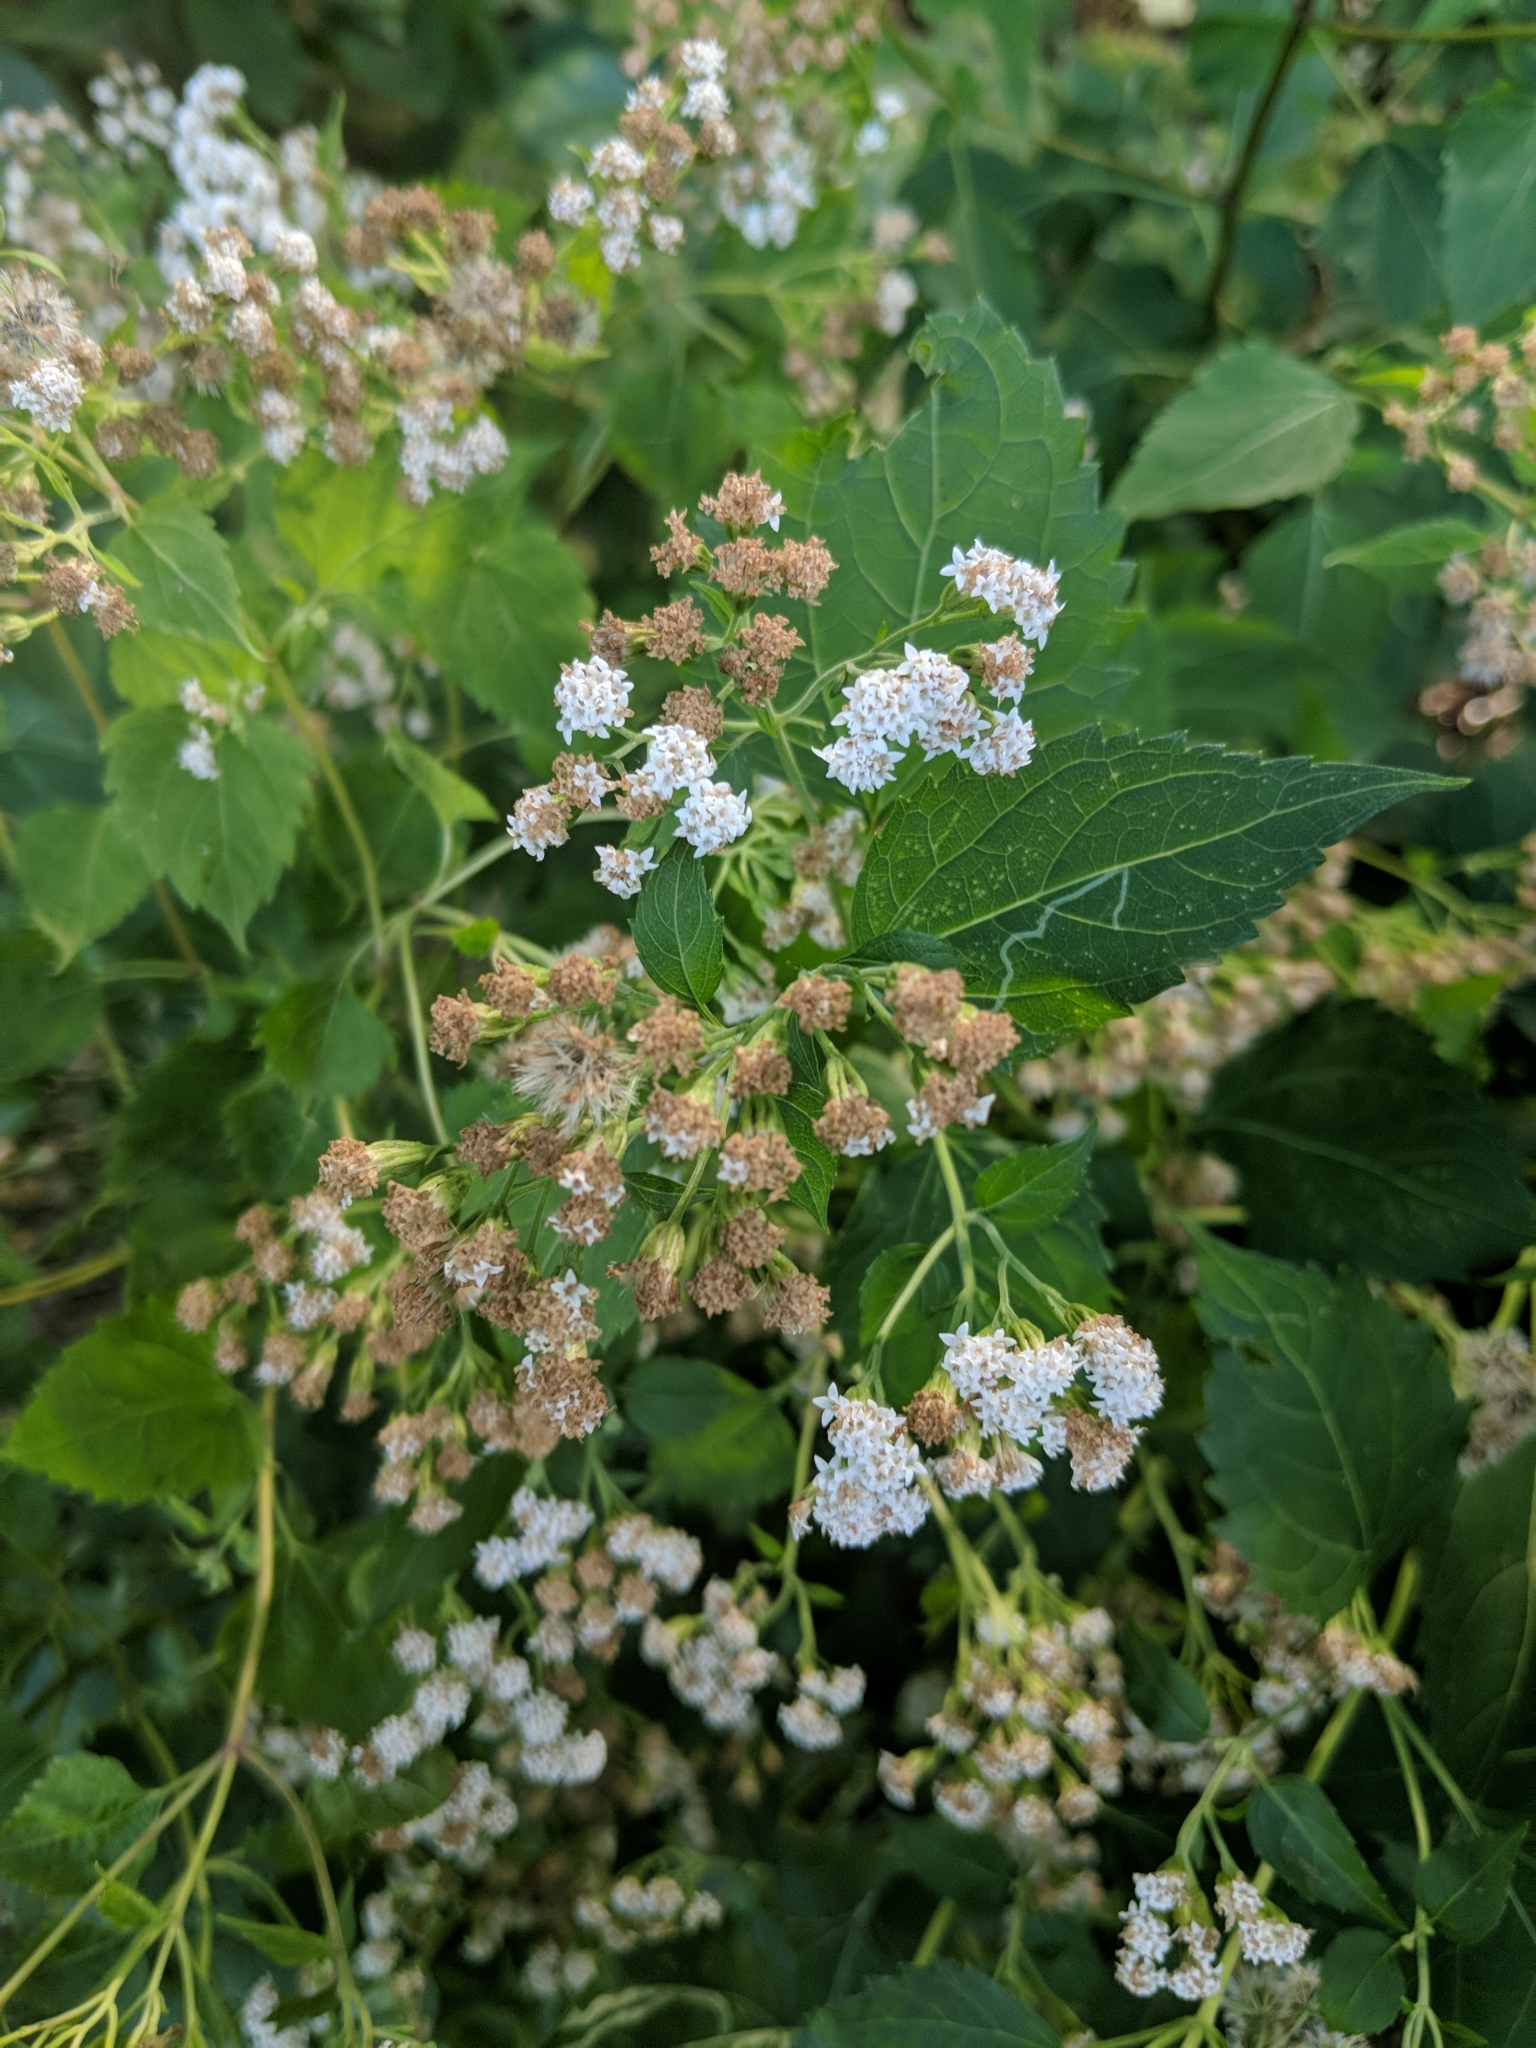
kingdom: Plantae
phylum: Tracheophyta
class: Magnoliopsida
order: Asterales
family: Asteraceae
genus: Ageratina
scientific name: Ageratina altissima
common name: White snakeroot
